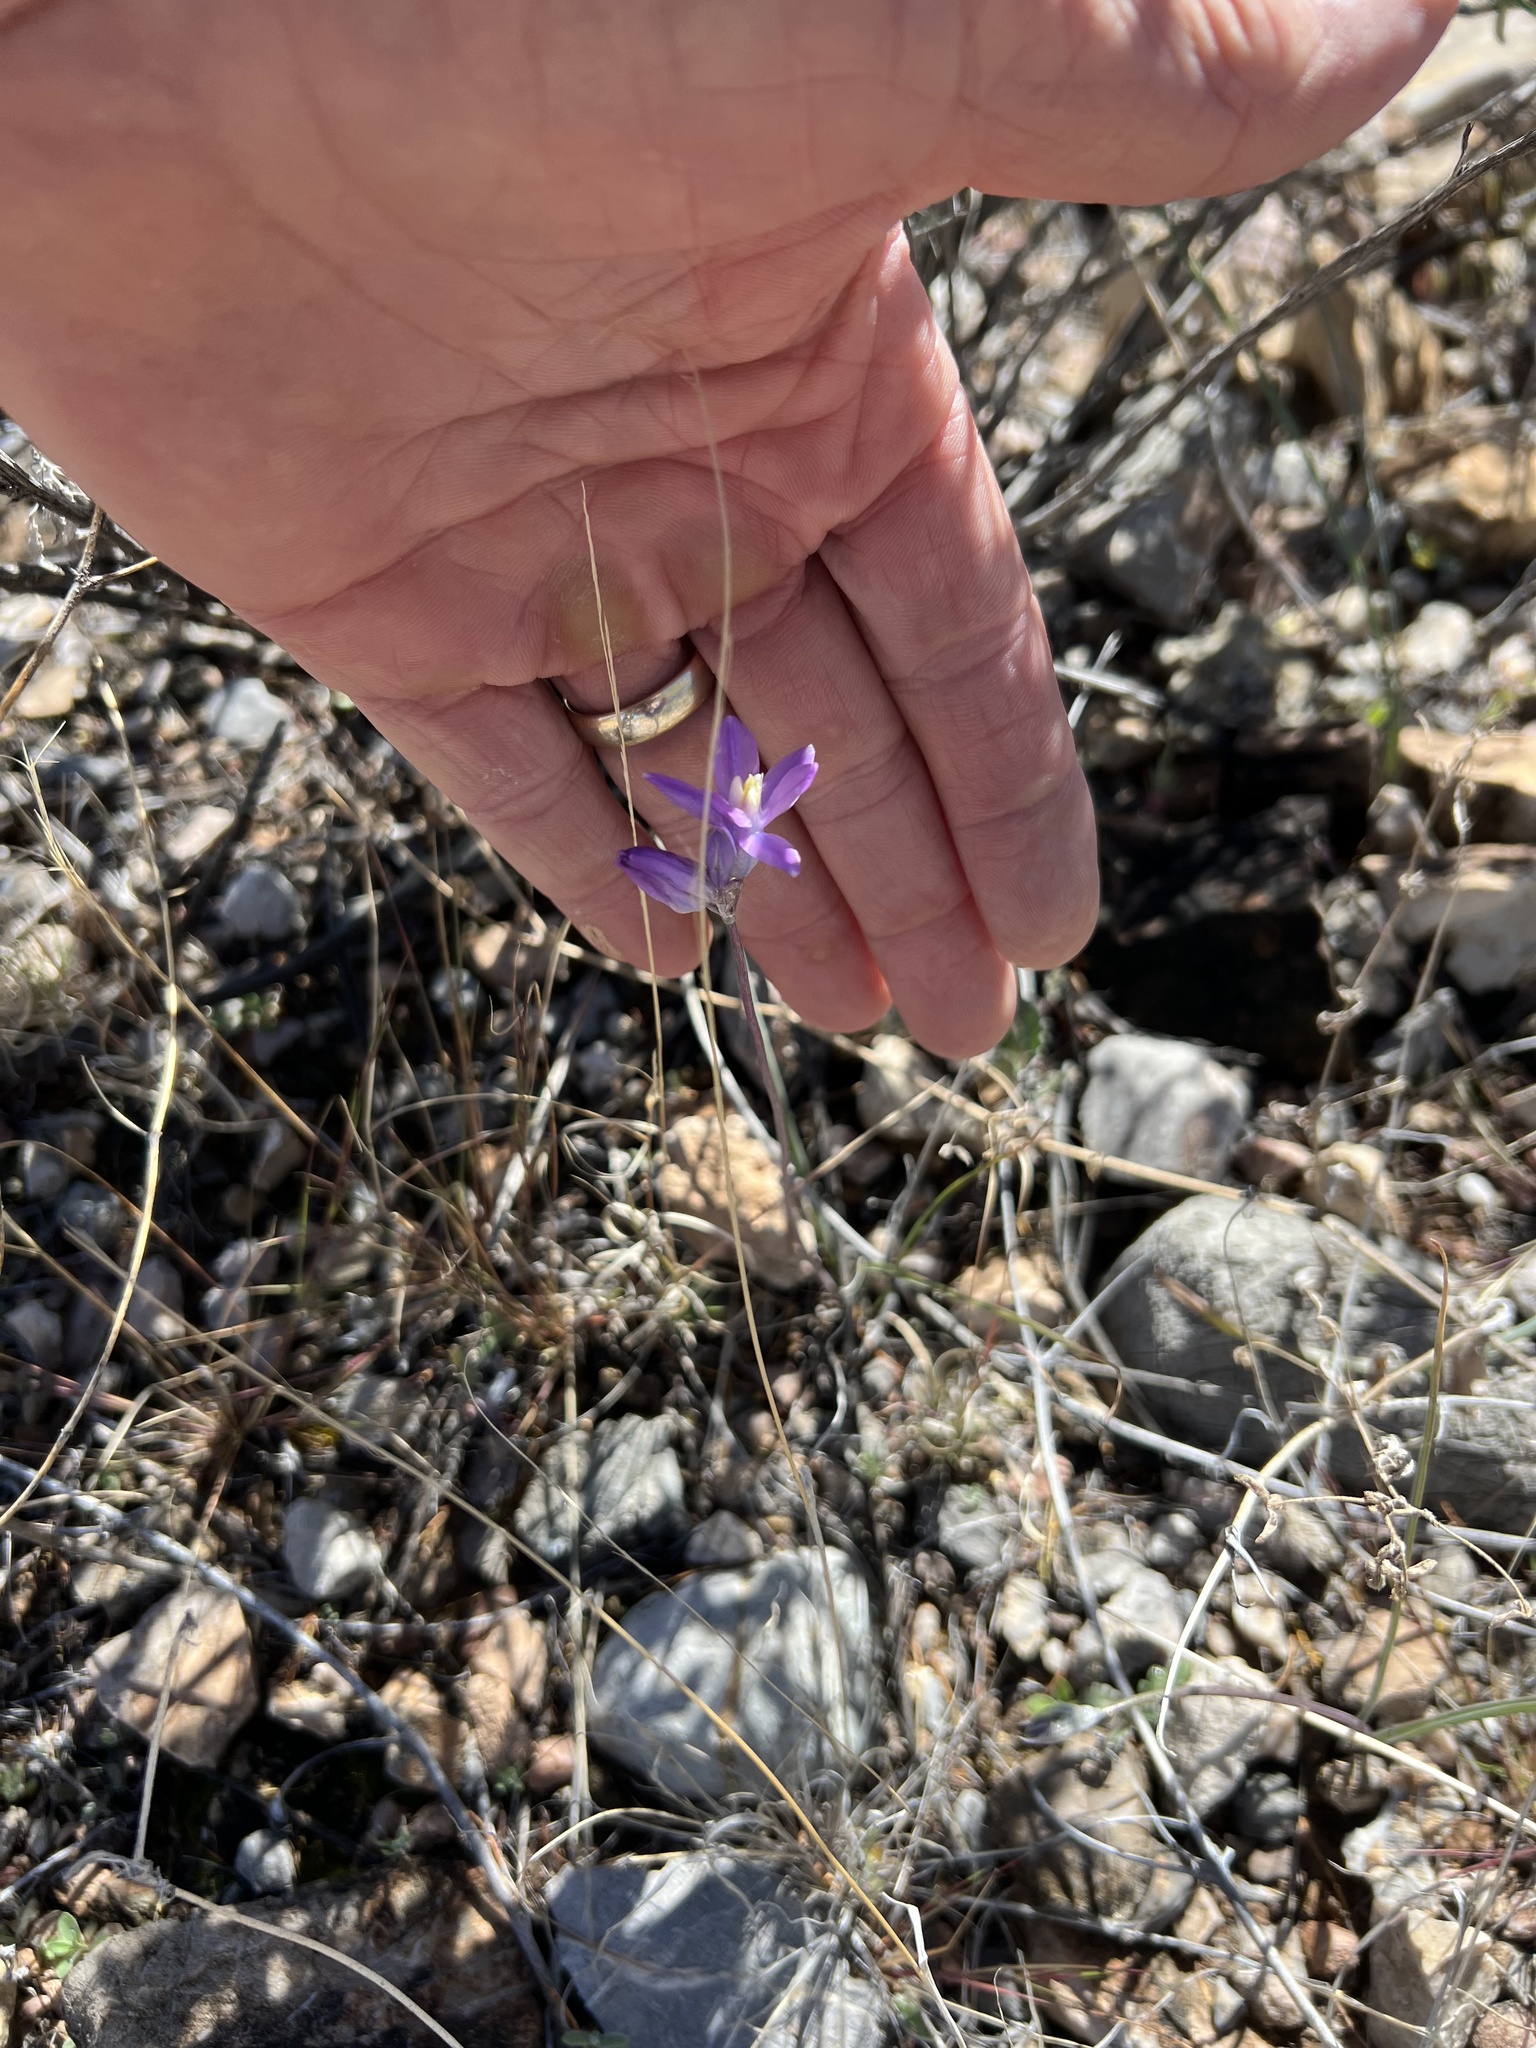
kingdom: Plantae
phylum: Tracheophyta
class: Liliopsida
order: Asparagales
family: Asparagaceae
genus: Dipterostemon
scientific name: Dipterostemon capitatus
